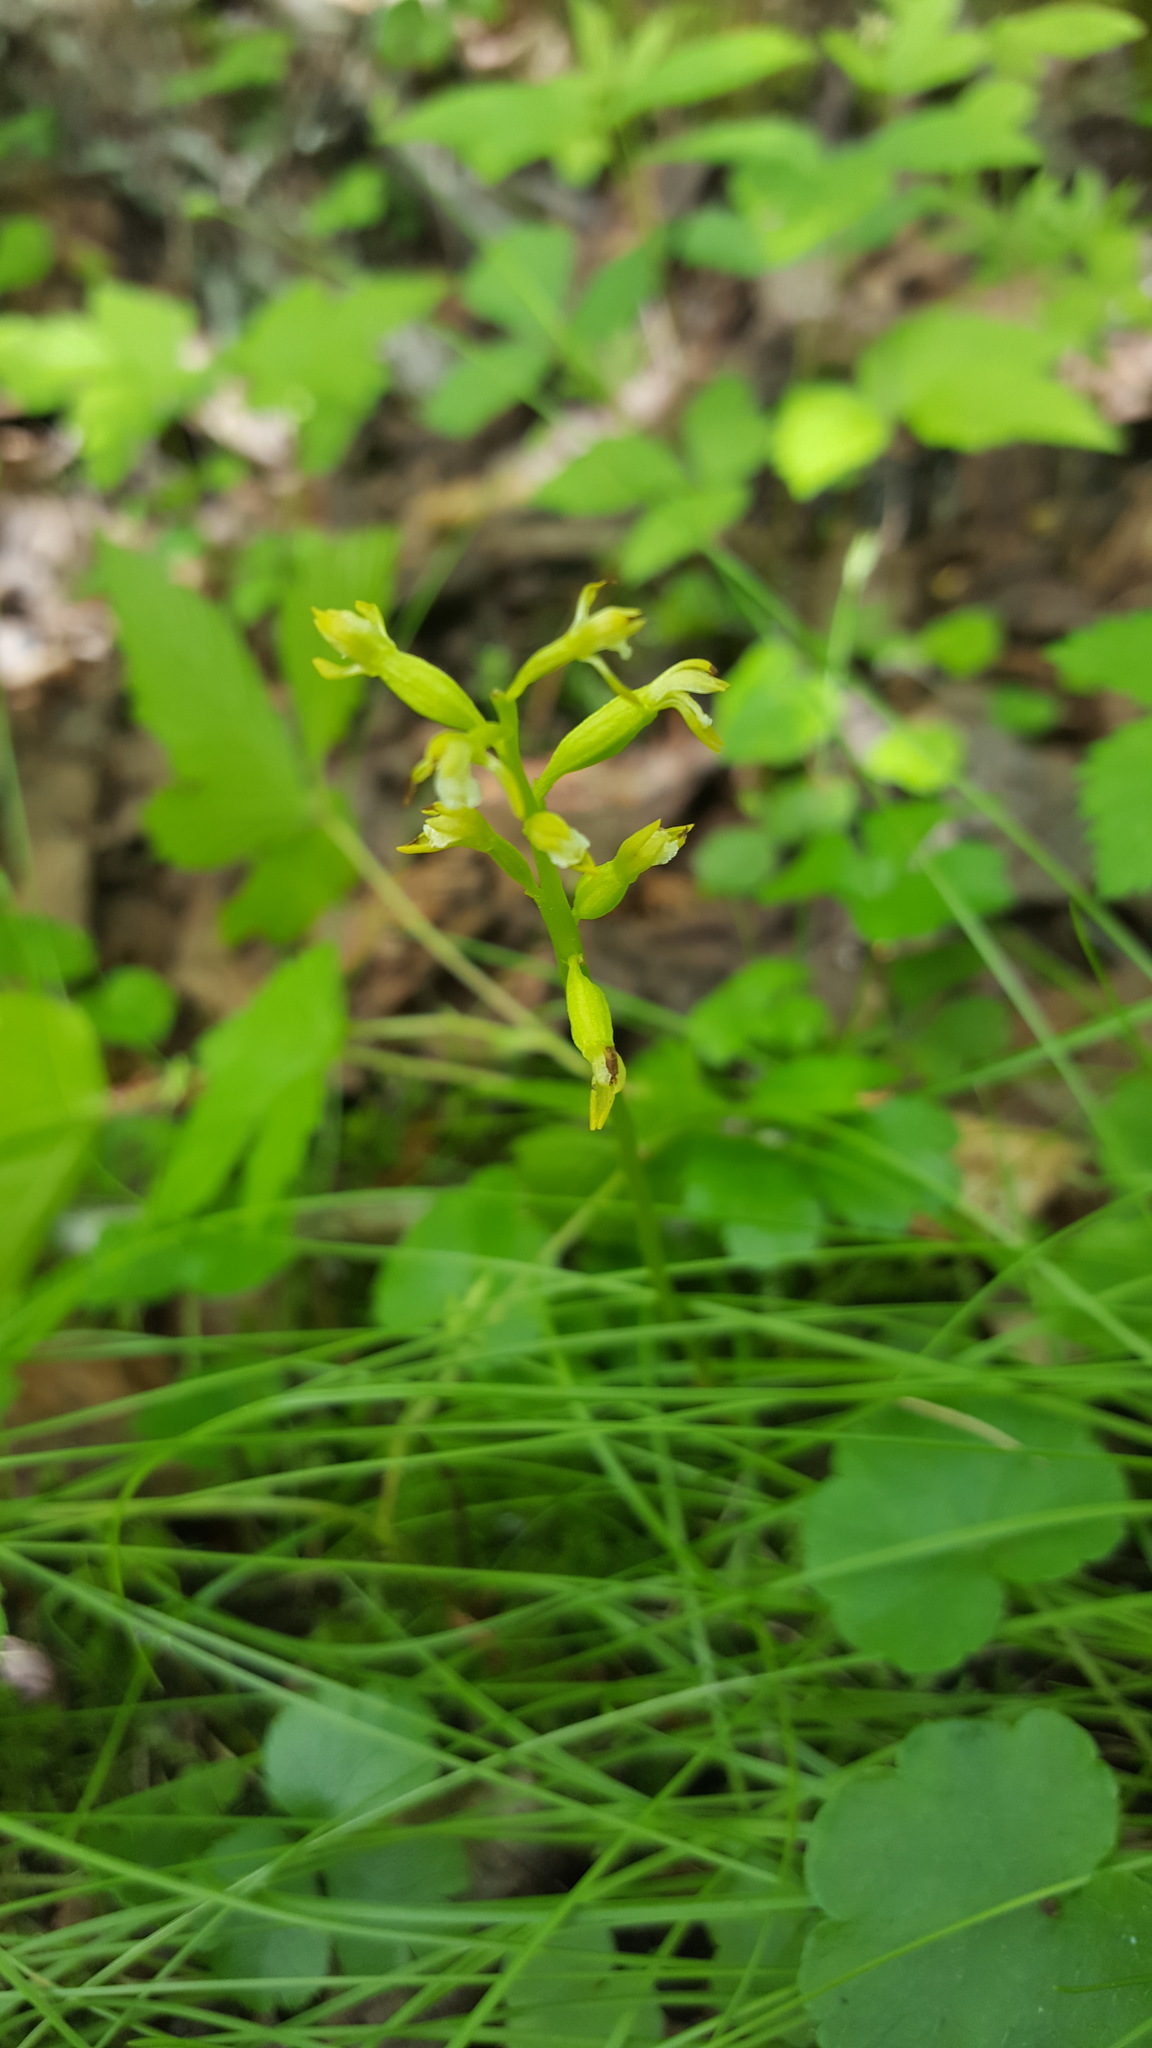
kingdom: Plantae
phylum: Tracheophyta
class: Liliopsida
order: Asparagales
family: Orchidaceae
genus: Corallorhiza
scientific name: Corallorhiza trifida
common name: Yellow coralroot
